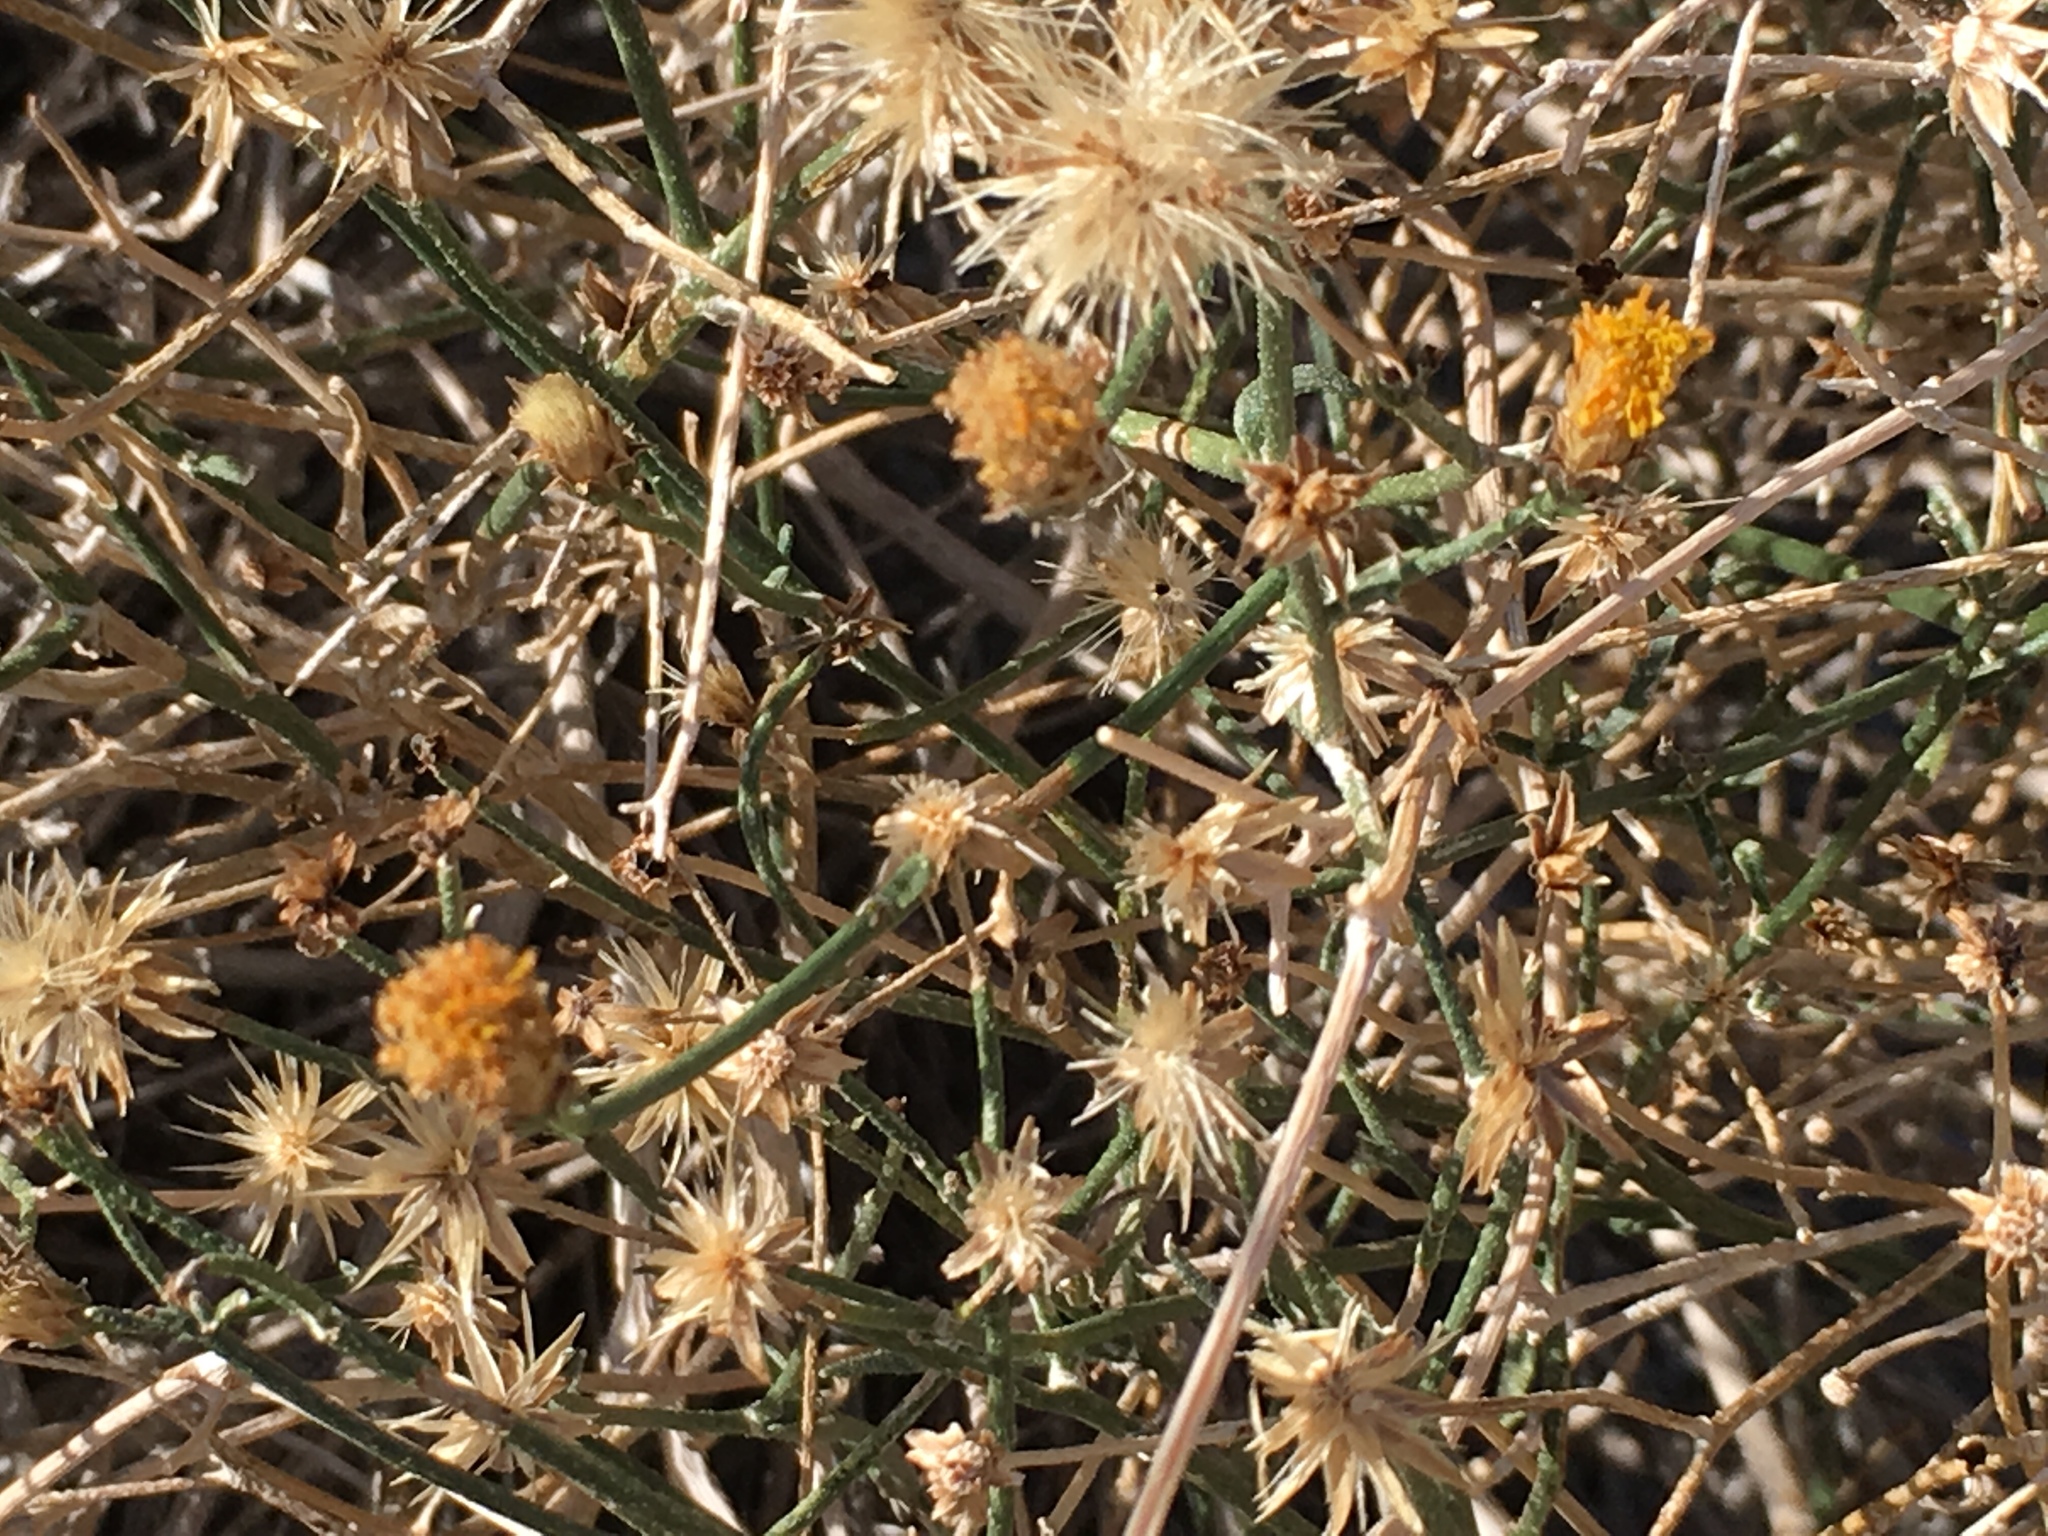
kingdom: Plantae
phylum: Tracheophyta
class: Magnoliopsida
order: Asterales
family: Asteraceae
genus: Bebbia
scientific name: Bebbia juncea
